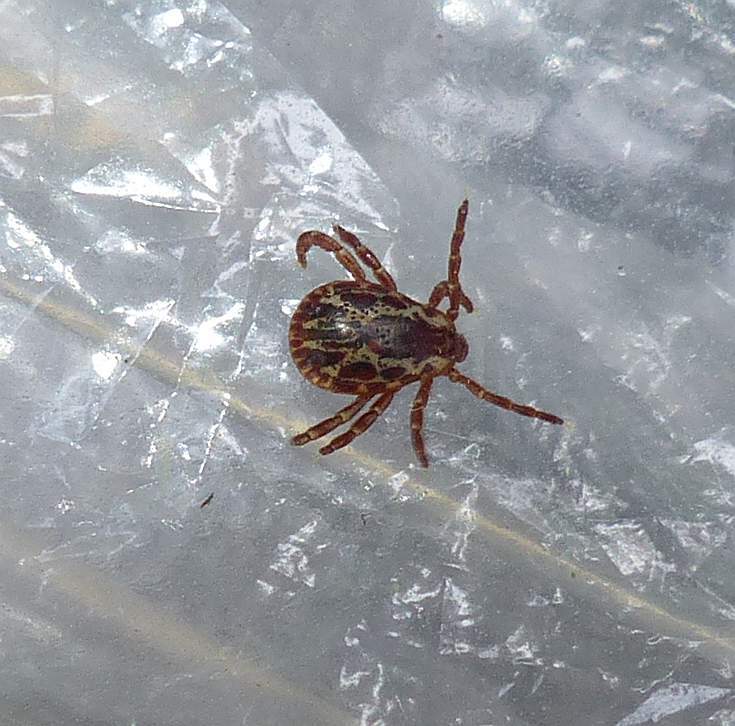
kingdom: Animalia
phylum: Arthropoda
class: Arachnida
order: Ixodida
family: Ixodidae
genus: Dermacentor
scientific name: Dermacentor variabilis
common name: American dog tick
